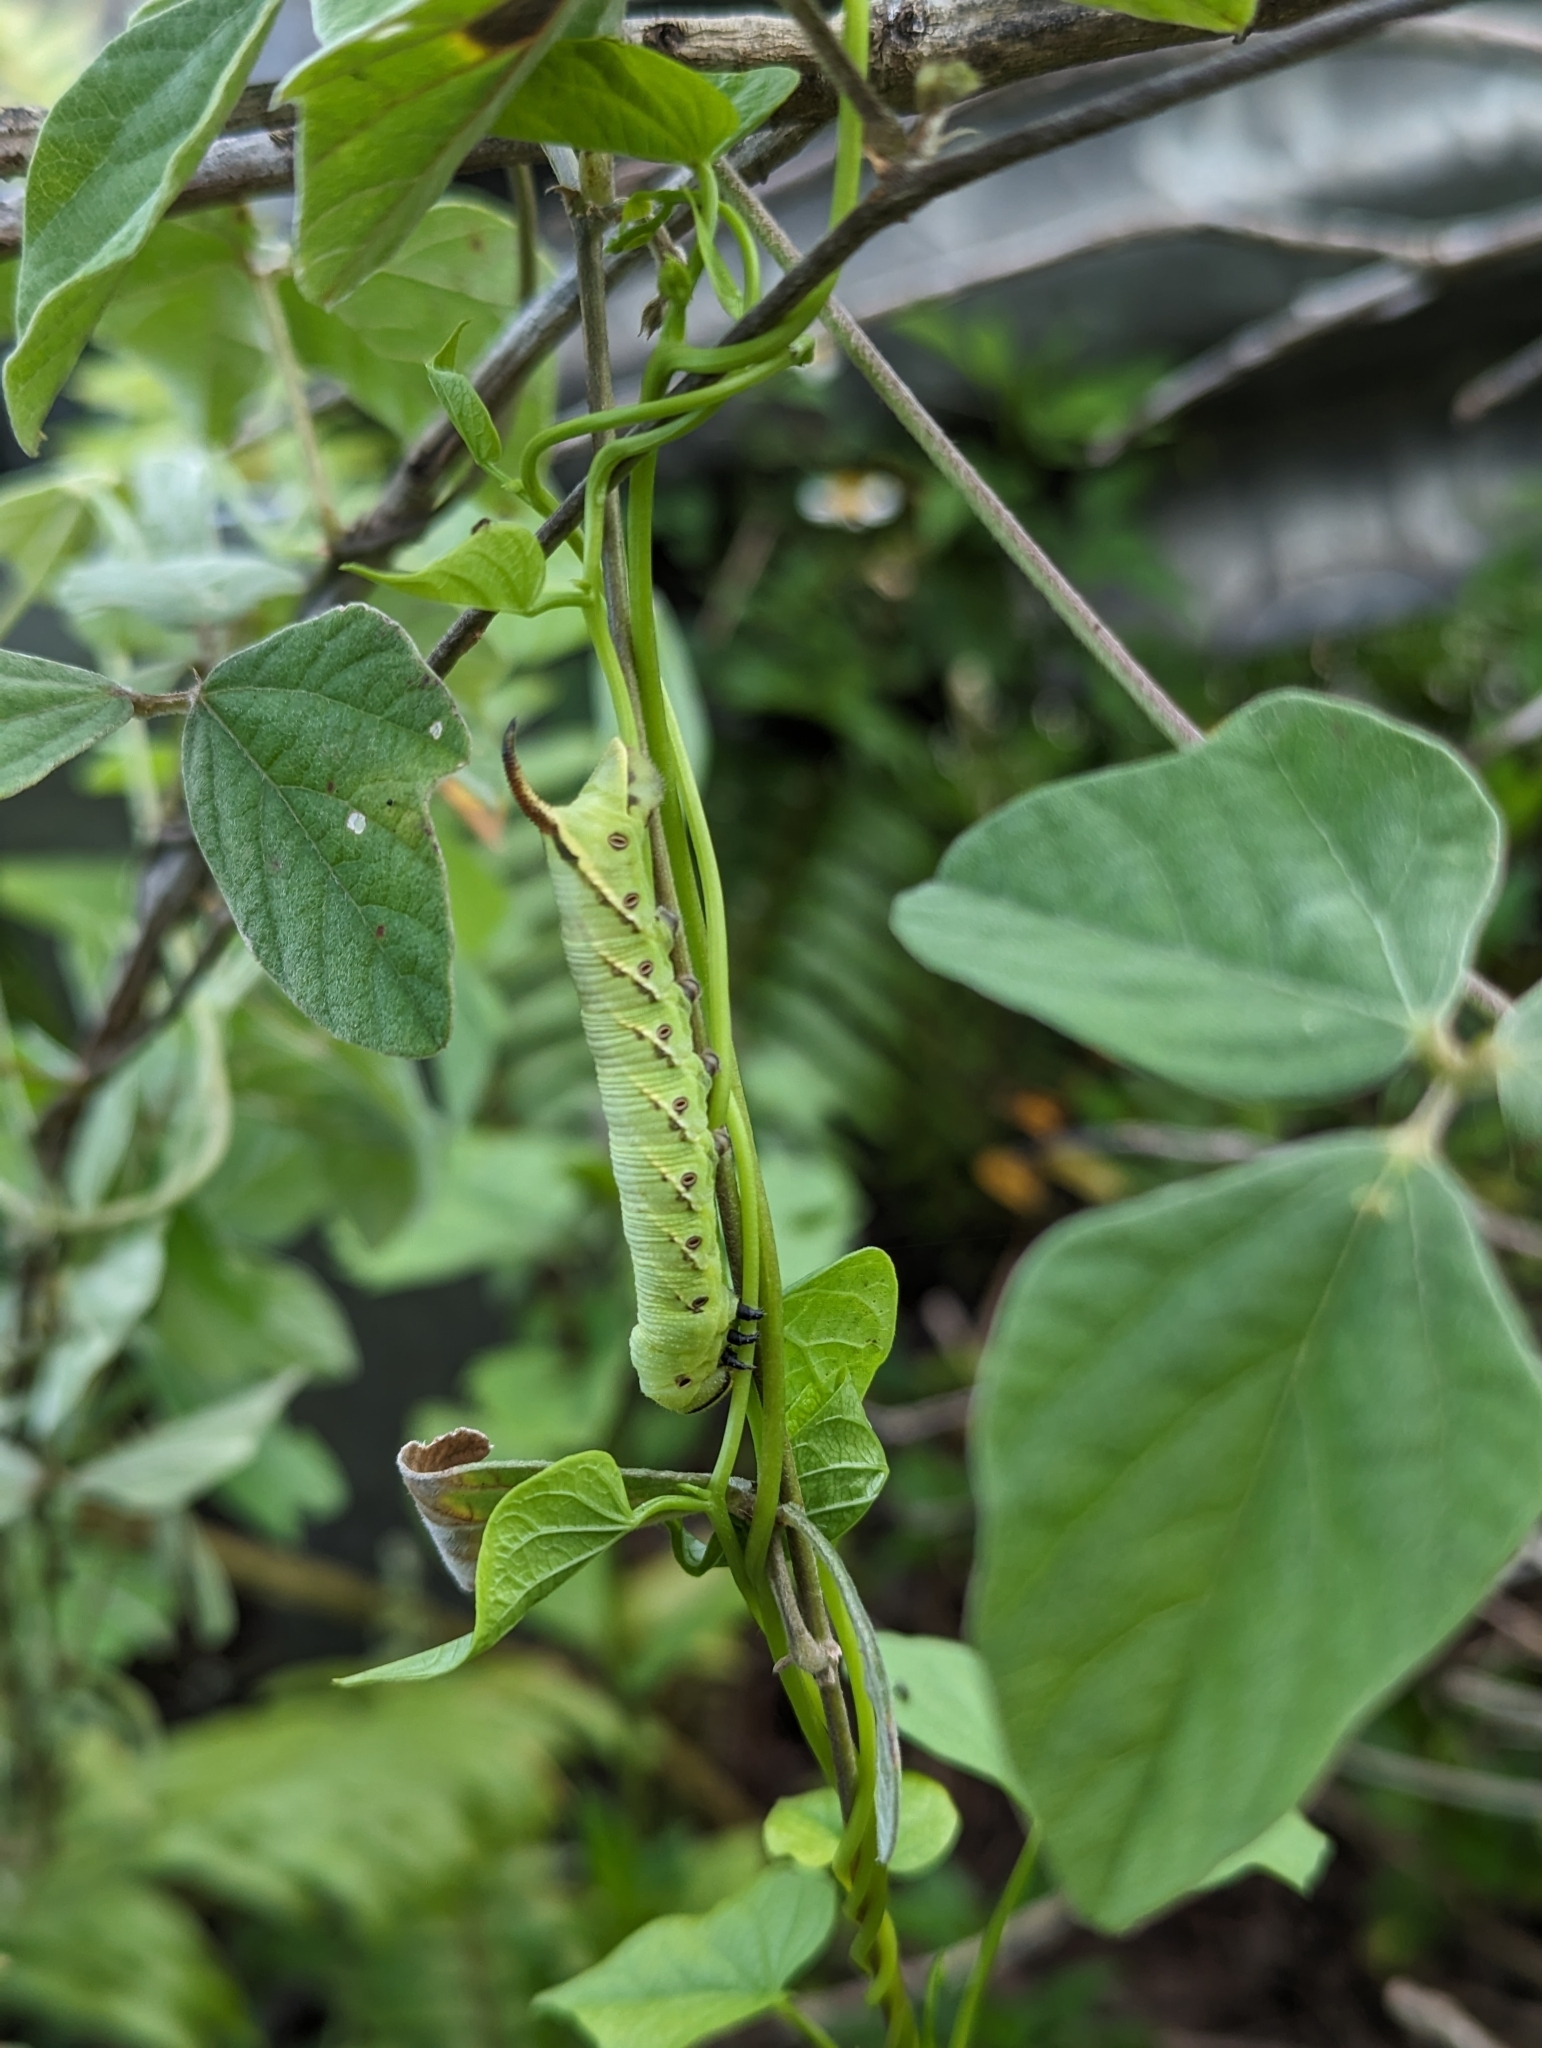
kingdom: Animalia
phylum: Arthropoda
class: Insecta
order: Lepidoptera
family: Sphingidae
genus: Agrius
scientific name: Agrius convolvuli
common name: Convolvulus hawkmoth
